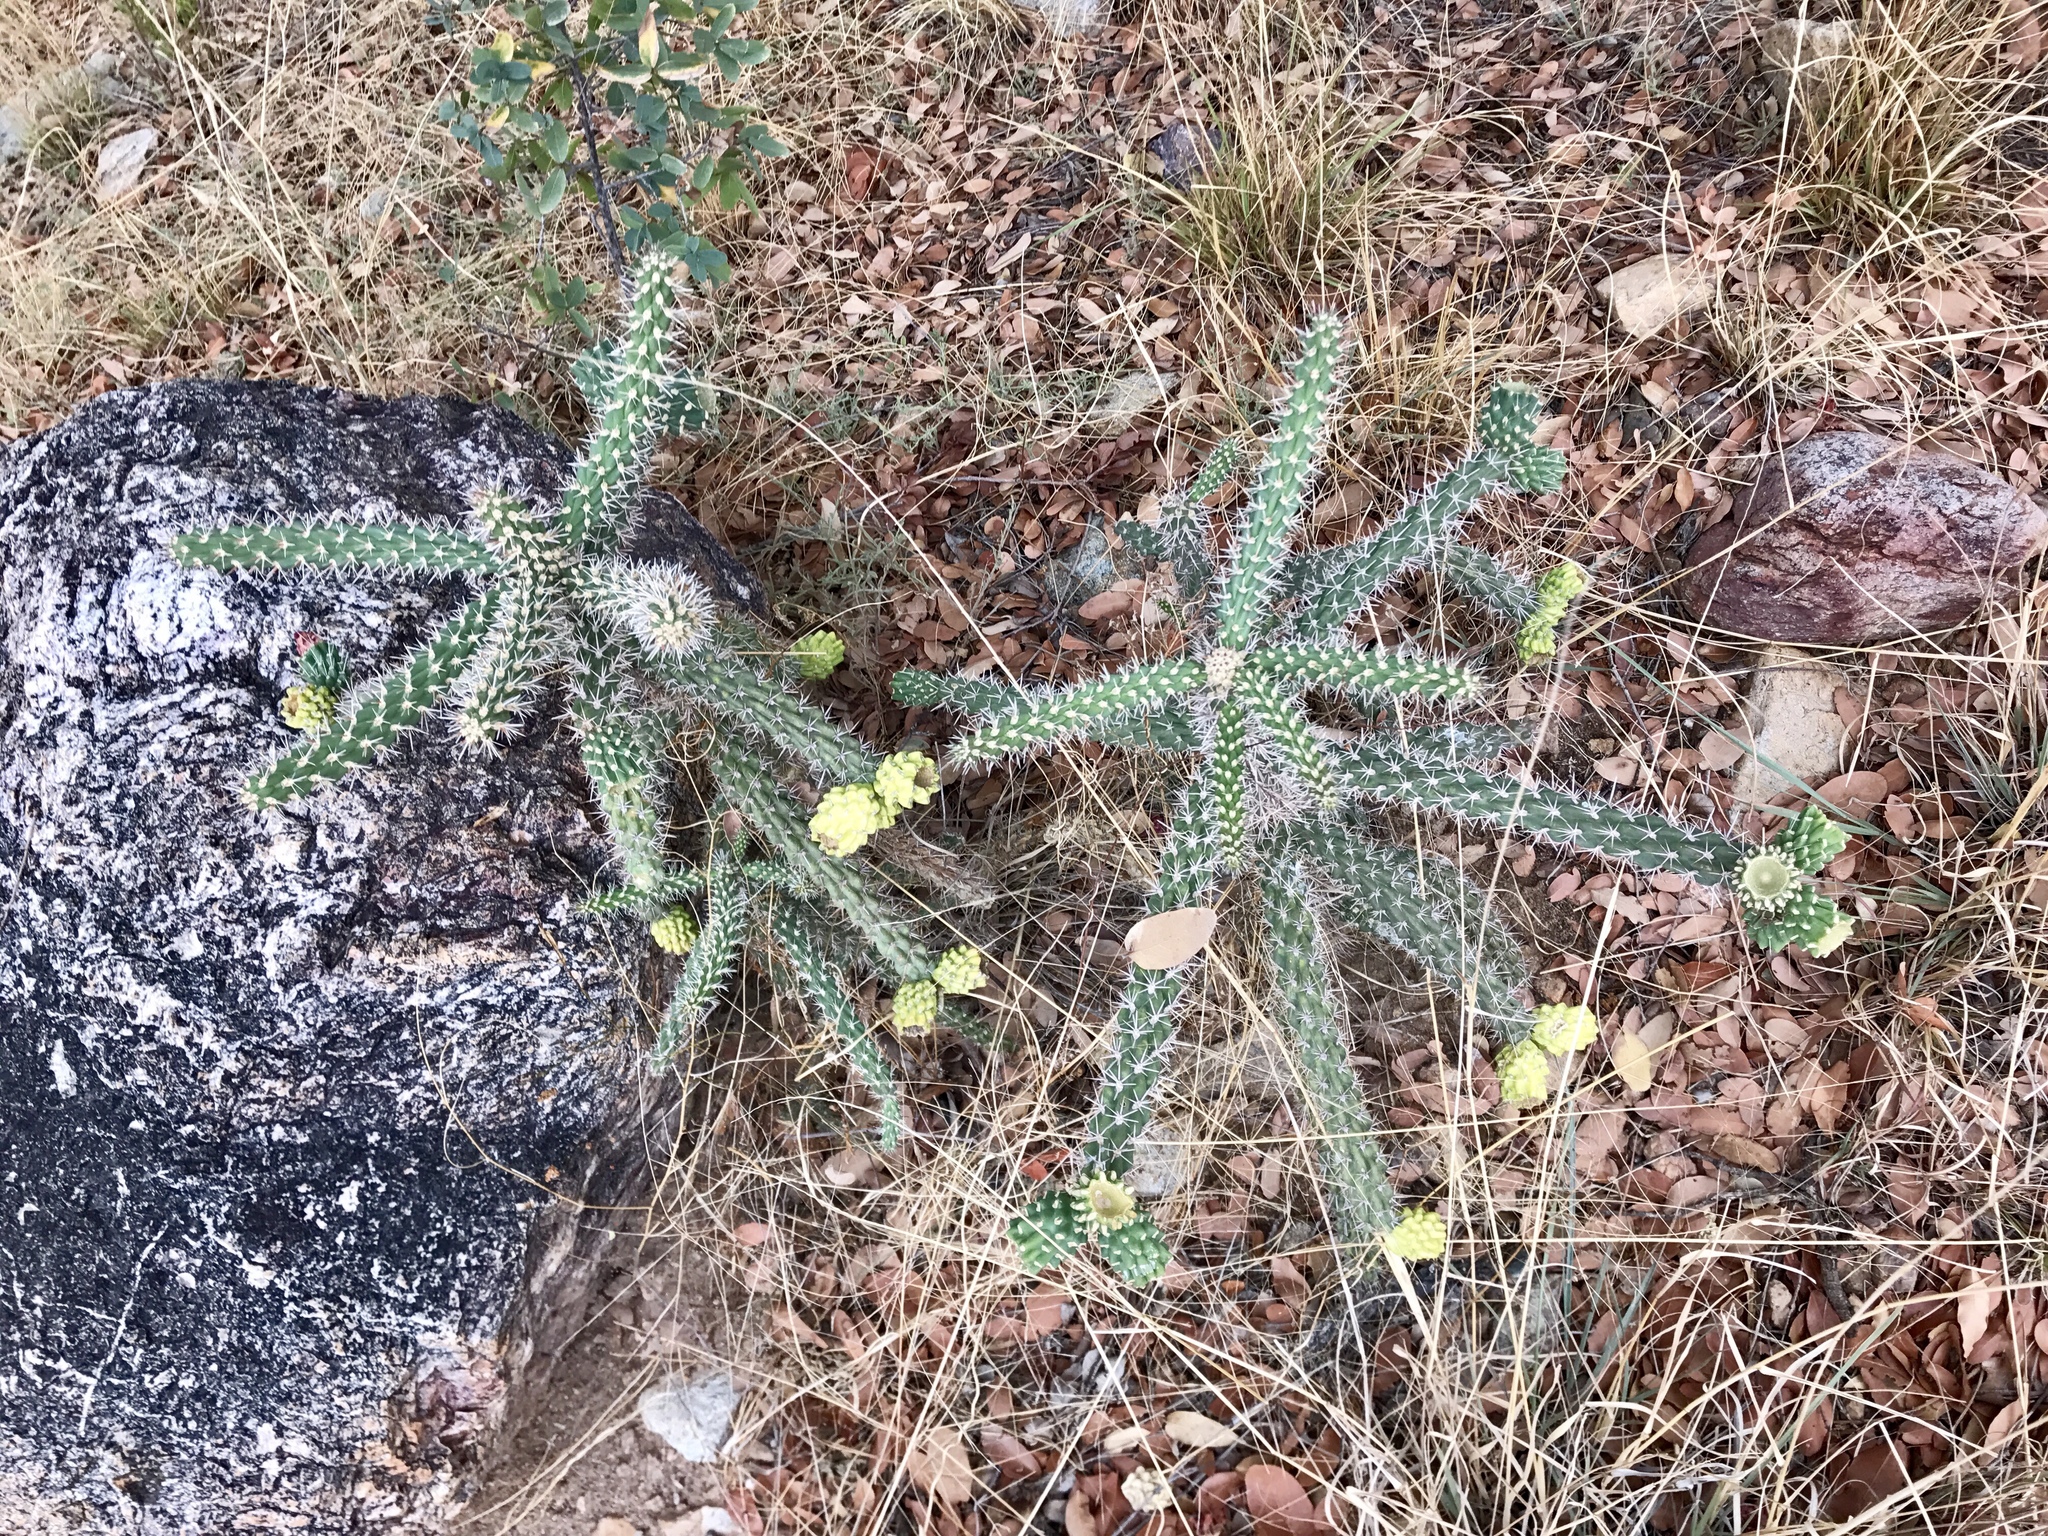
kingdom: Plantae
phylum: Tracheophyta
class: Magnoliopsida
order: Caryophyllales
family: Cactaceae
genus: Cylindropuntia
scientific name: Cylindropuntia imbricata
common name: Candelabrum cactus
